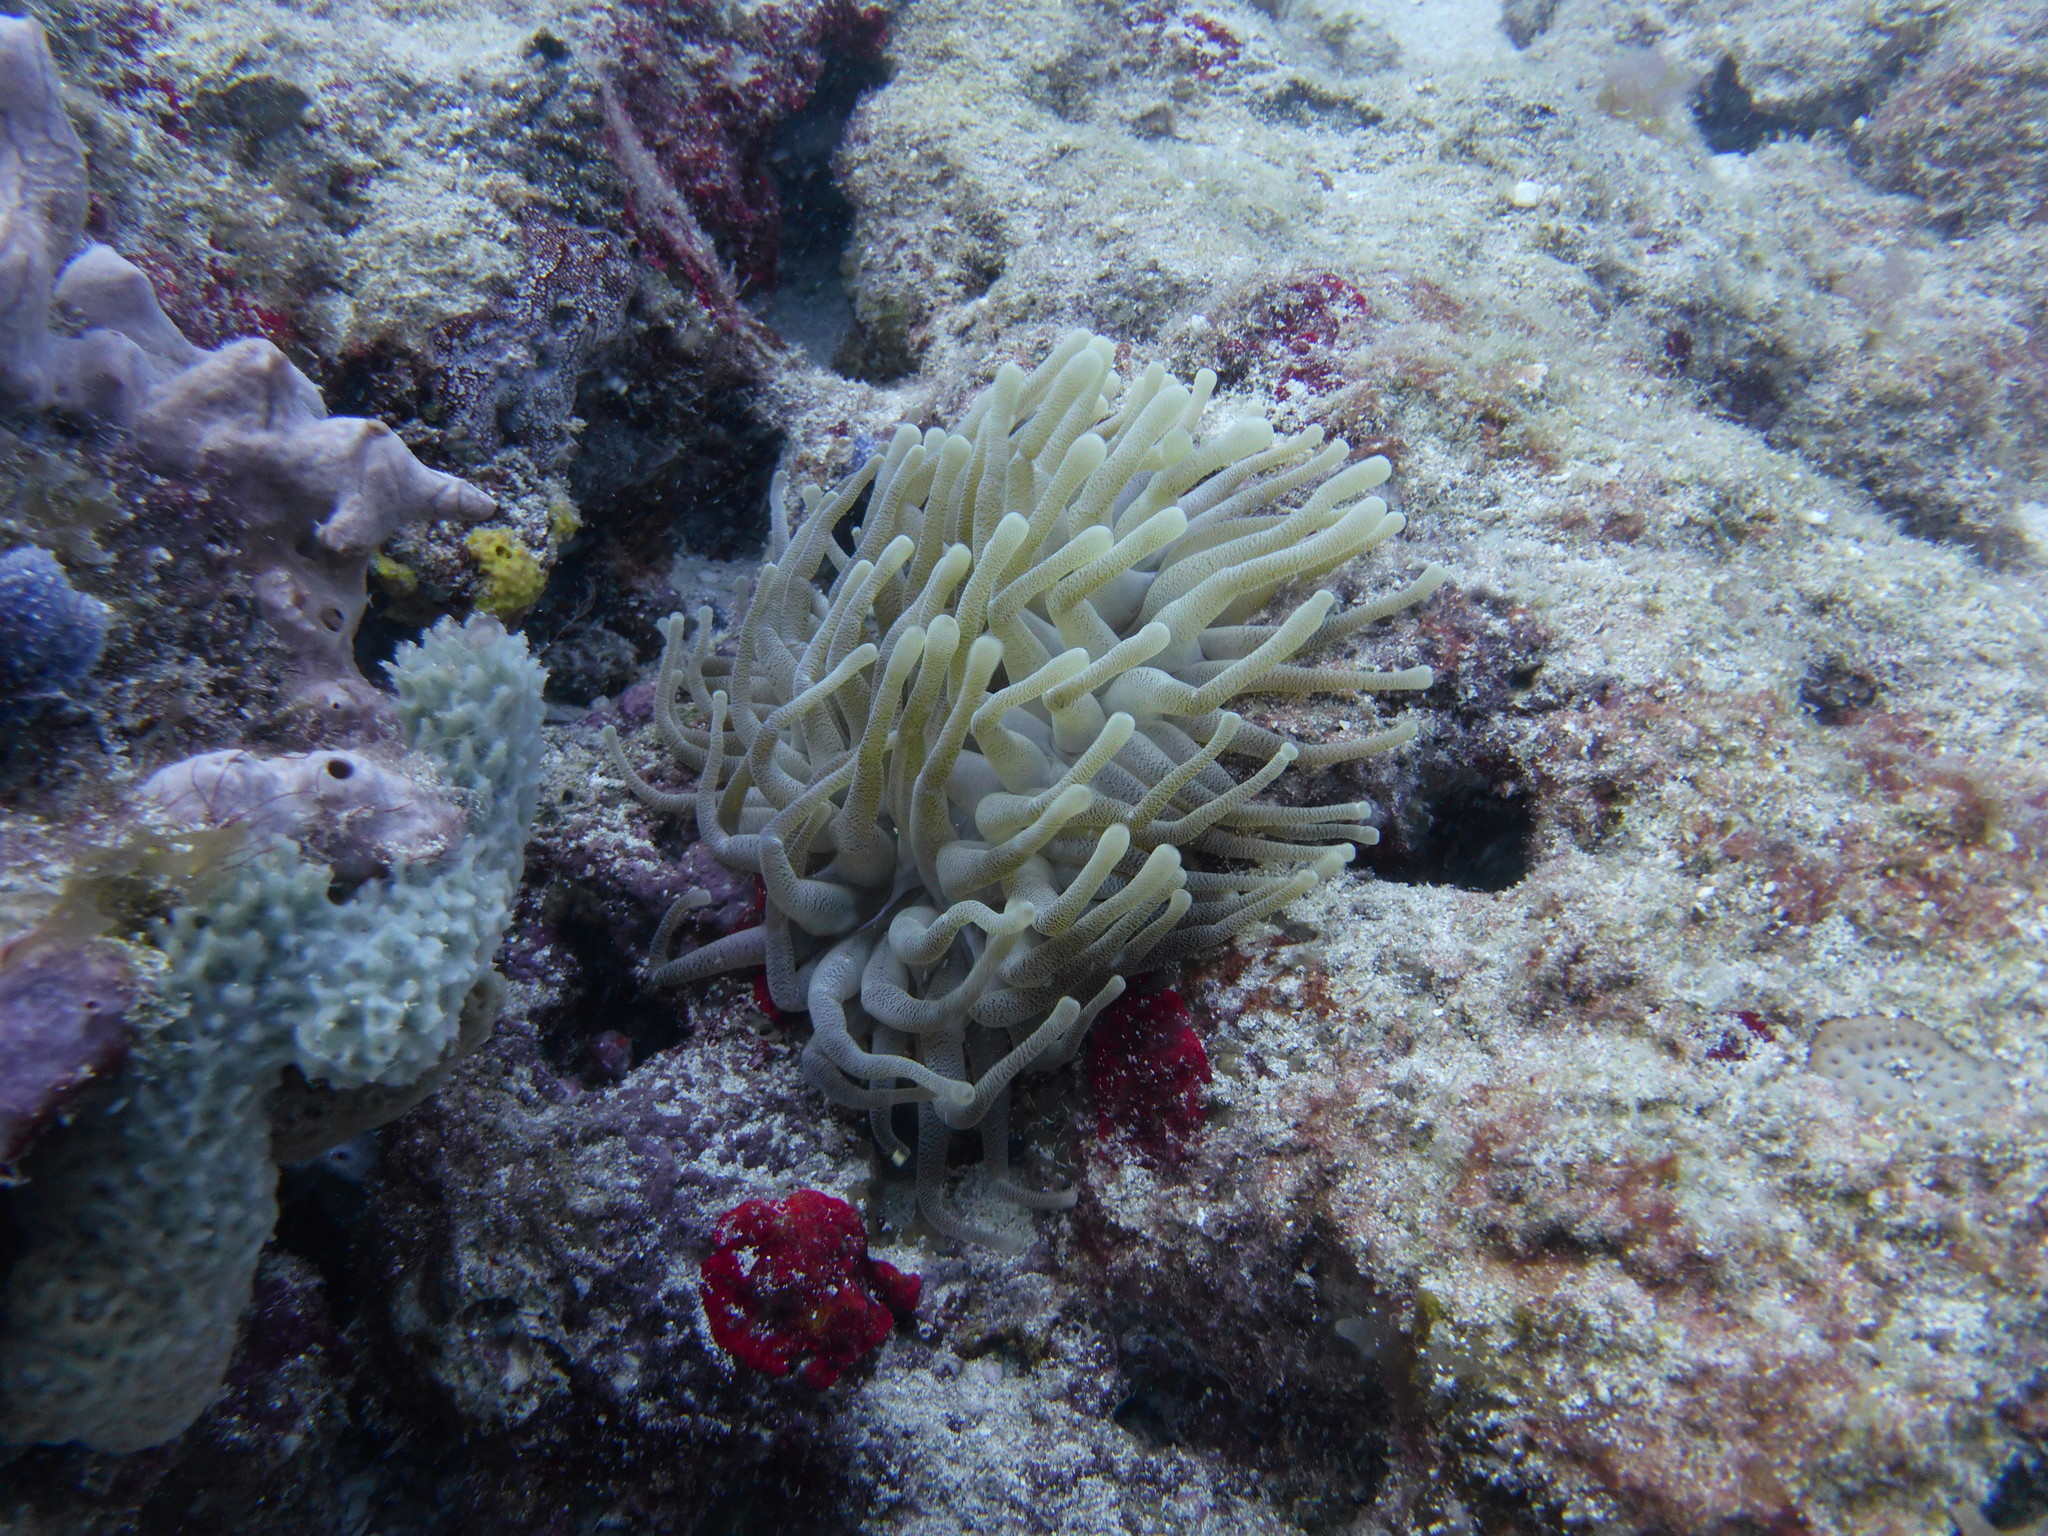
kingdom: Animalia
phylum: Cnidaria
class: Anthozoa
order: Actiniaria
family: Actiniidae
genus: Condylactis
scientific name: Condylactis gigantea
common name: Giant caribbean anemone
